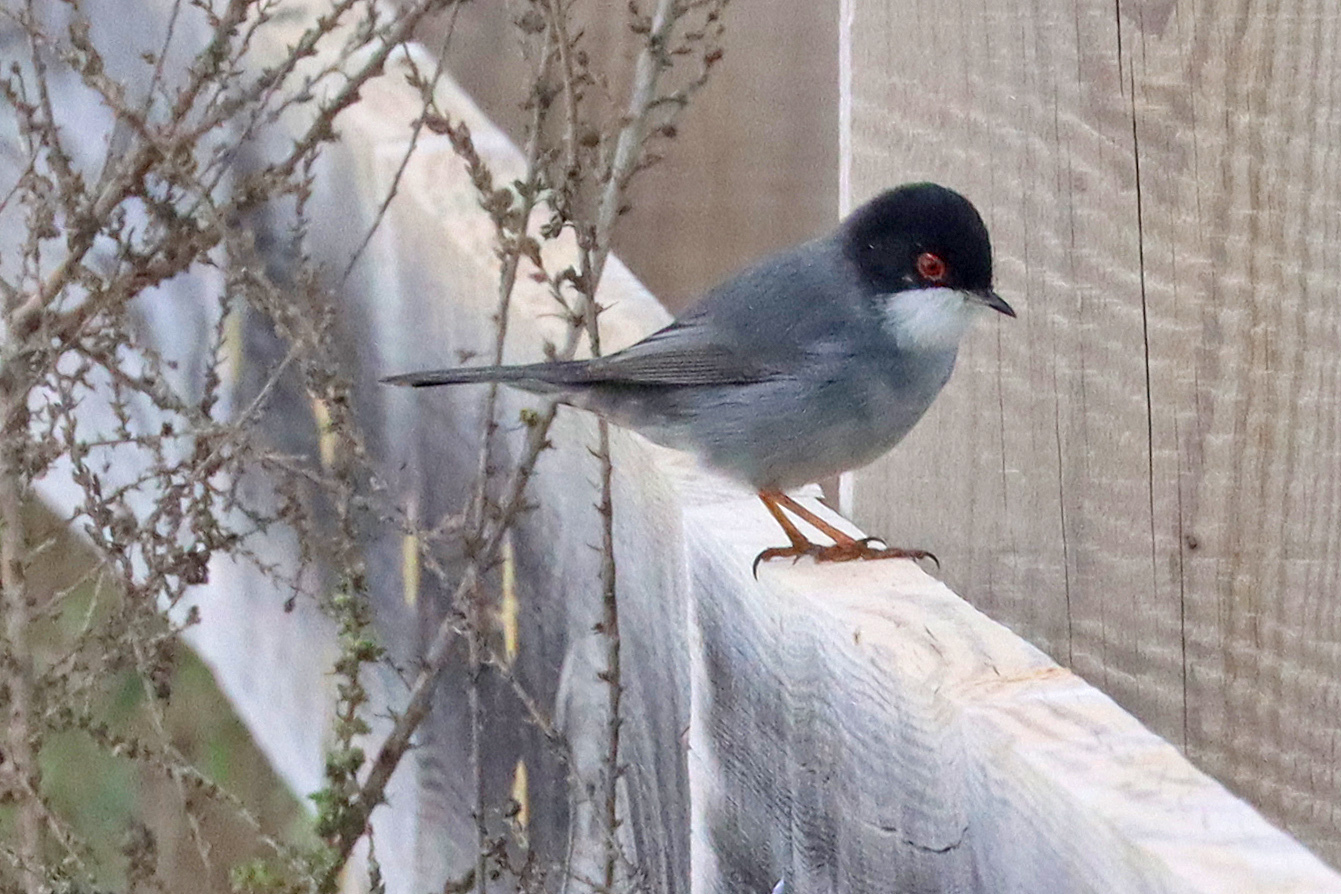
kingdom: Animalia
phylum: Chordata
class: Aves
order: Passeriformes
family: Sylviidae
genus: Curruca
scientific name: Curruca melanocephala
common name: Sardinian warbler
